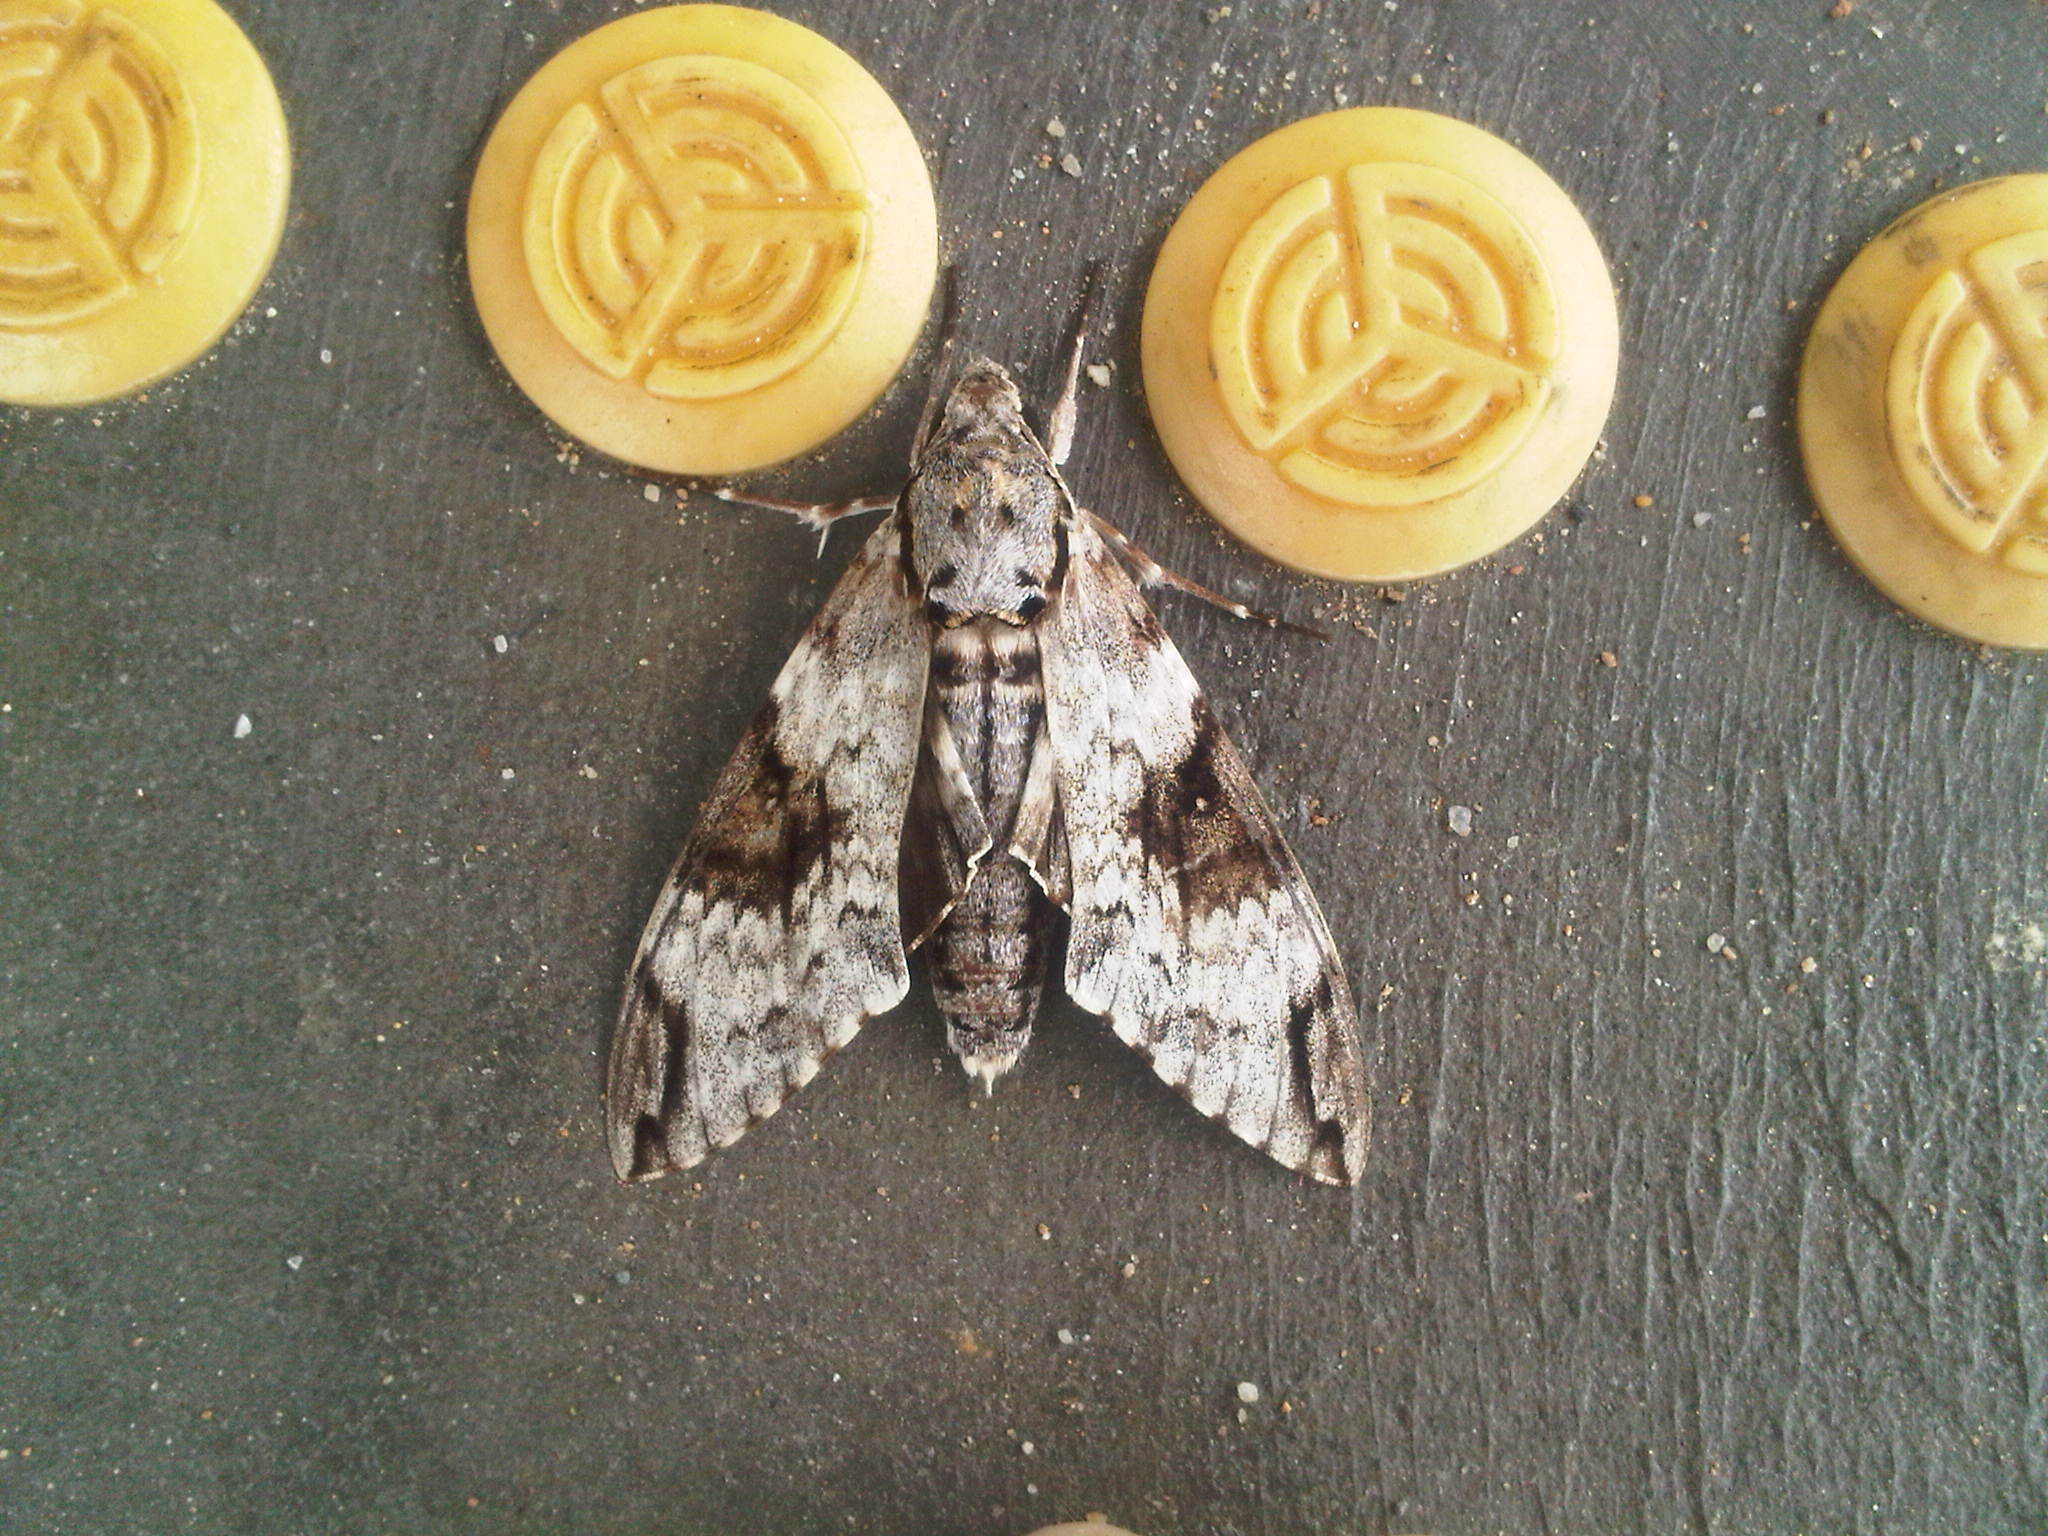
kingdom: Animalia
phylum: Arthropoda
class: Insecta
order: Lepidoptera
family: Sphingidae
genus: Psilogramma
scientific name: Psilogramma casuarinae
